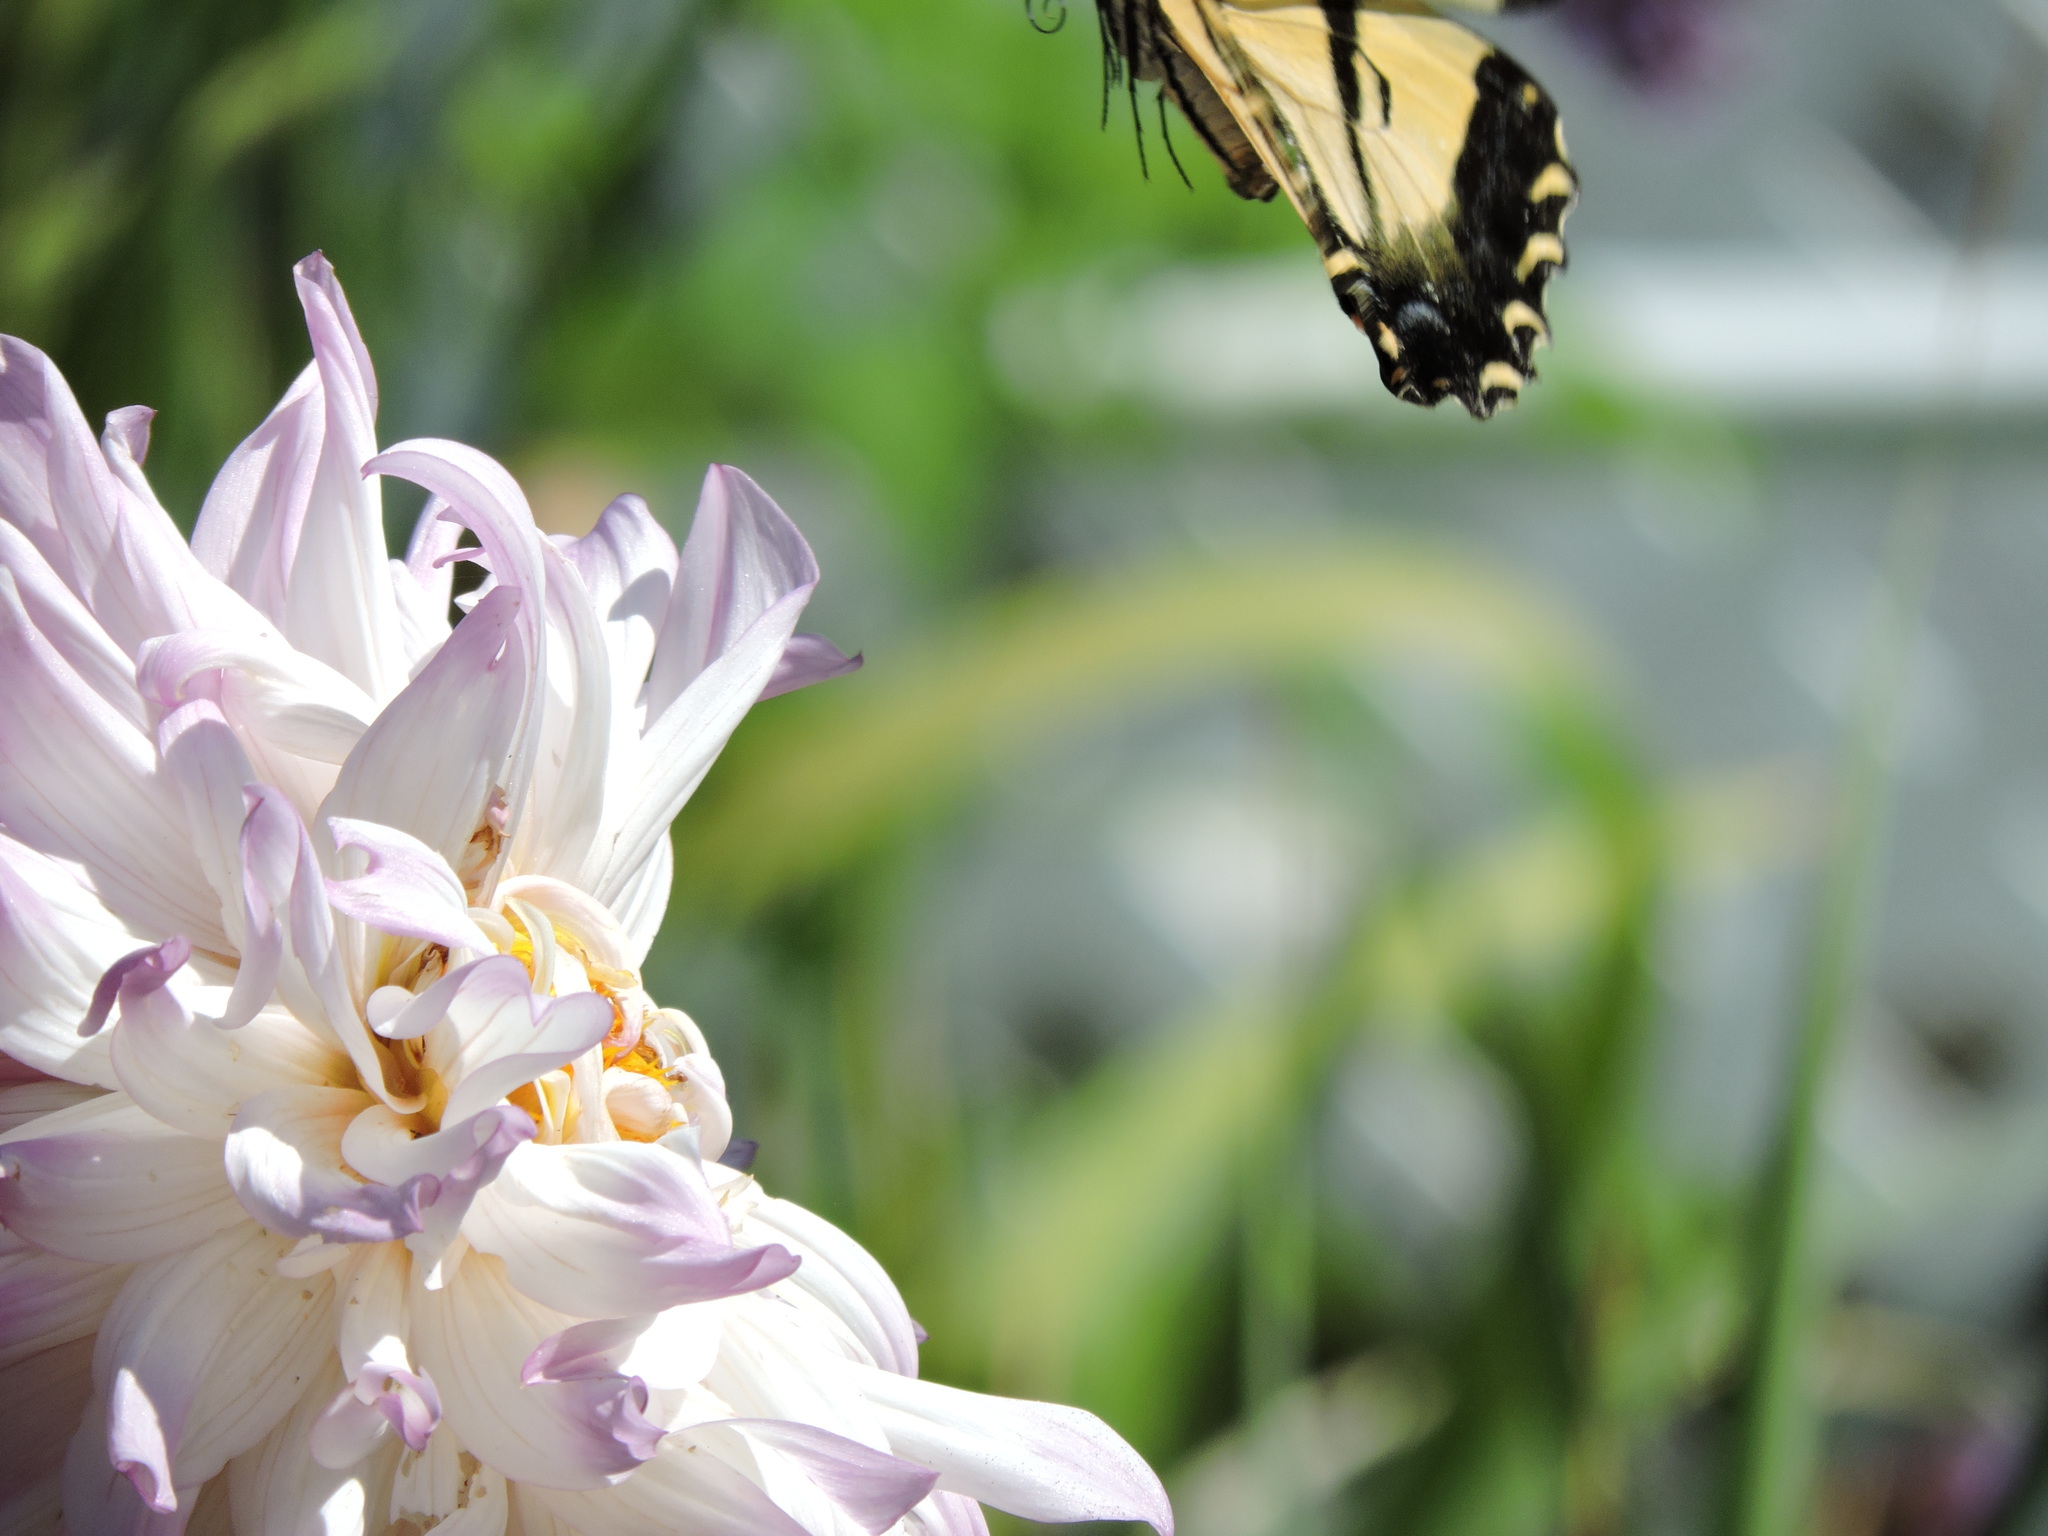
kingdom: Animalia
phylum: Arthropoda
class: Insecta
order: Lepidoptera
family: Papilionidae
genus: Papilio
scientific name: Papilio rutulus
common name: Western tiger swallowtail
